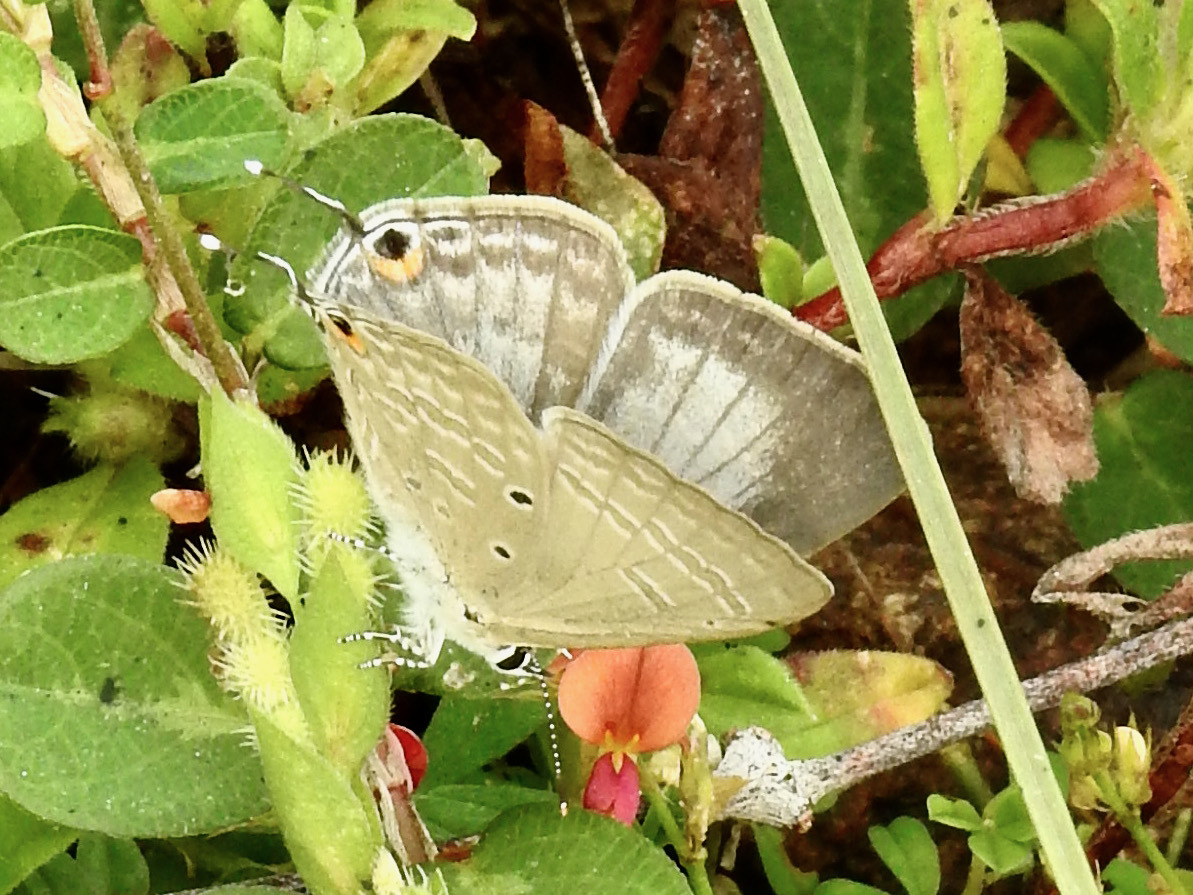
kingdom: Animalia
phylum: Arthropoda
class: Insecta
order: Lepidoptera
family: Lycaenidae
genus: Catochrysops
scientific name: Catochrysops strabo
